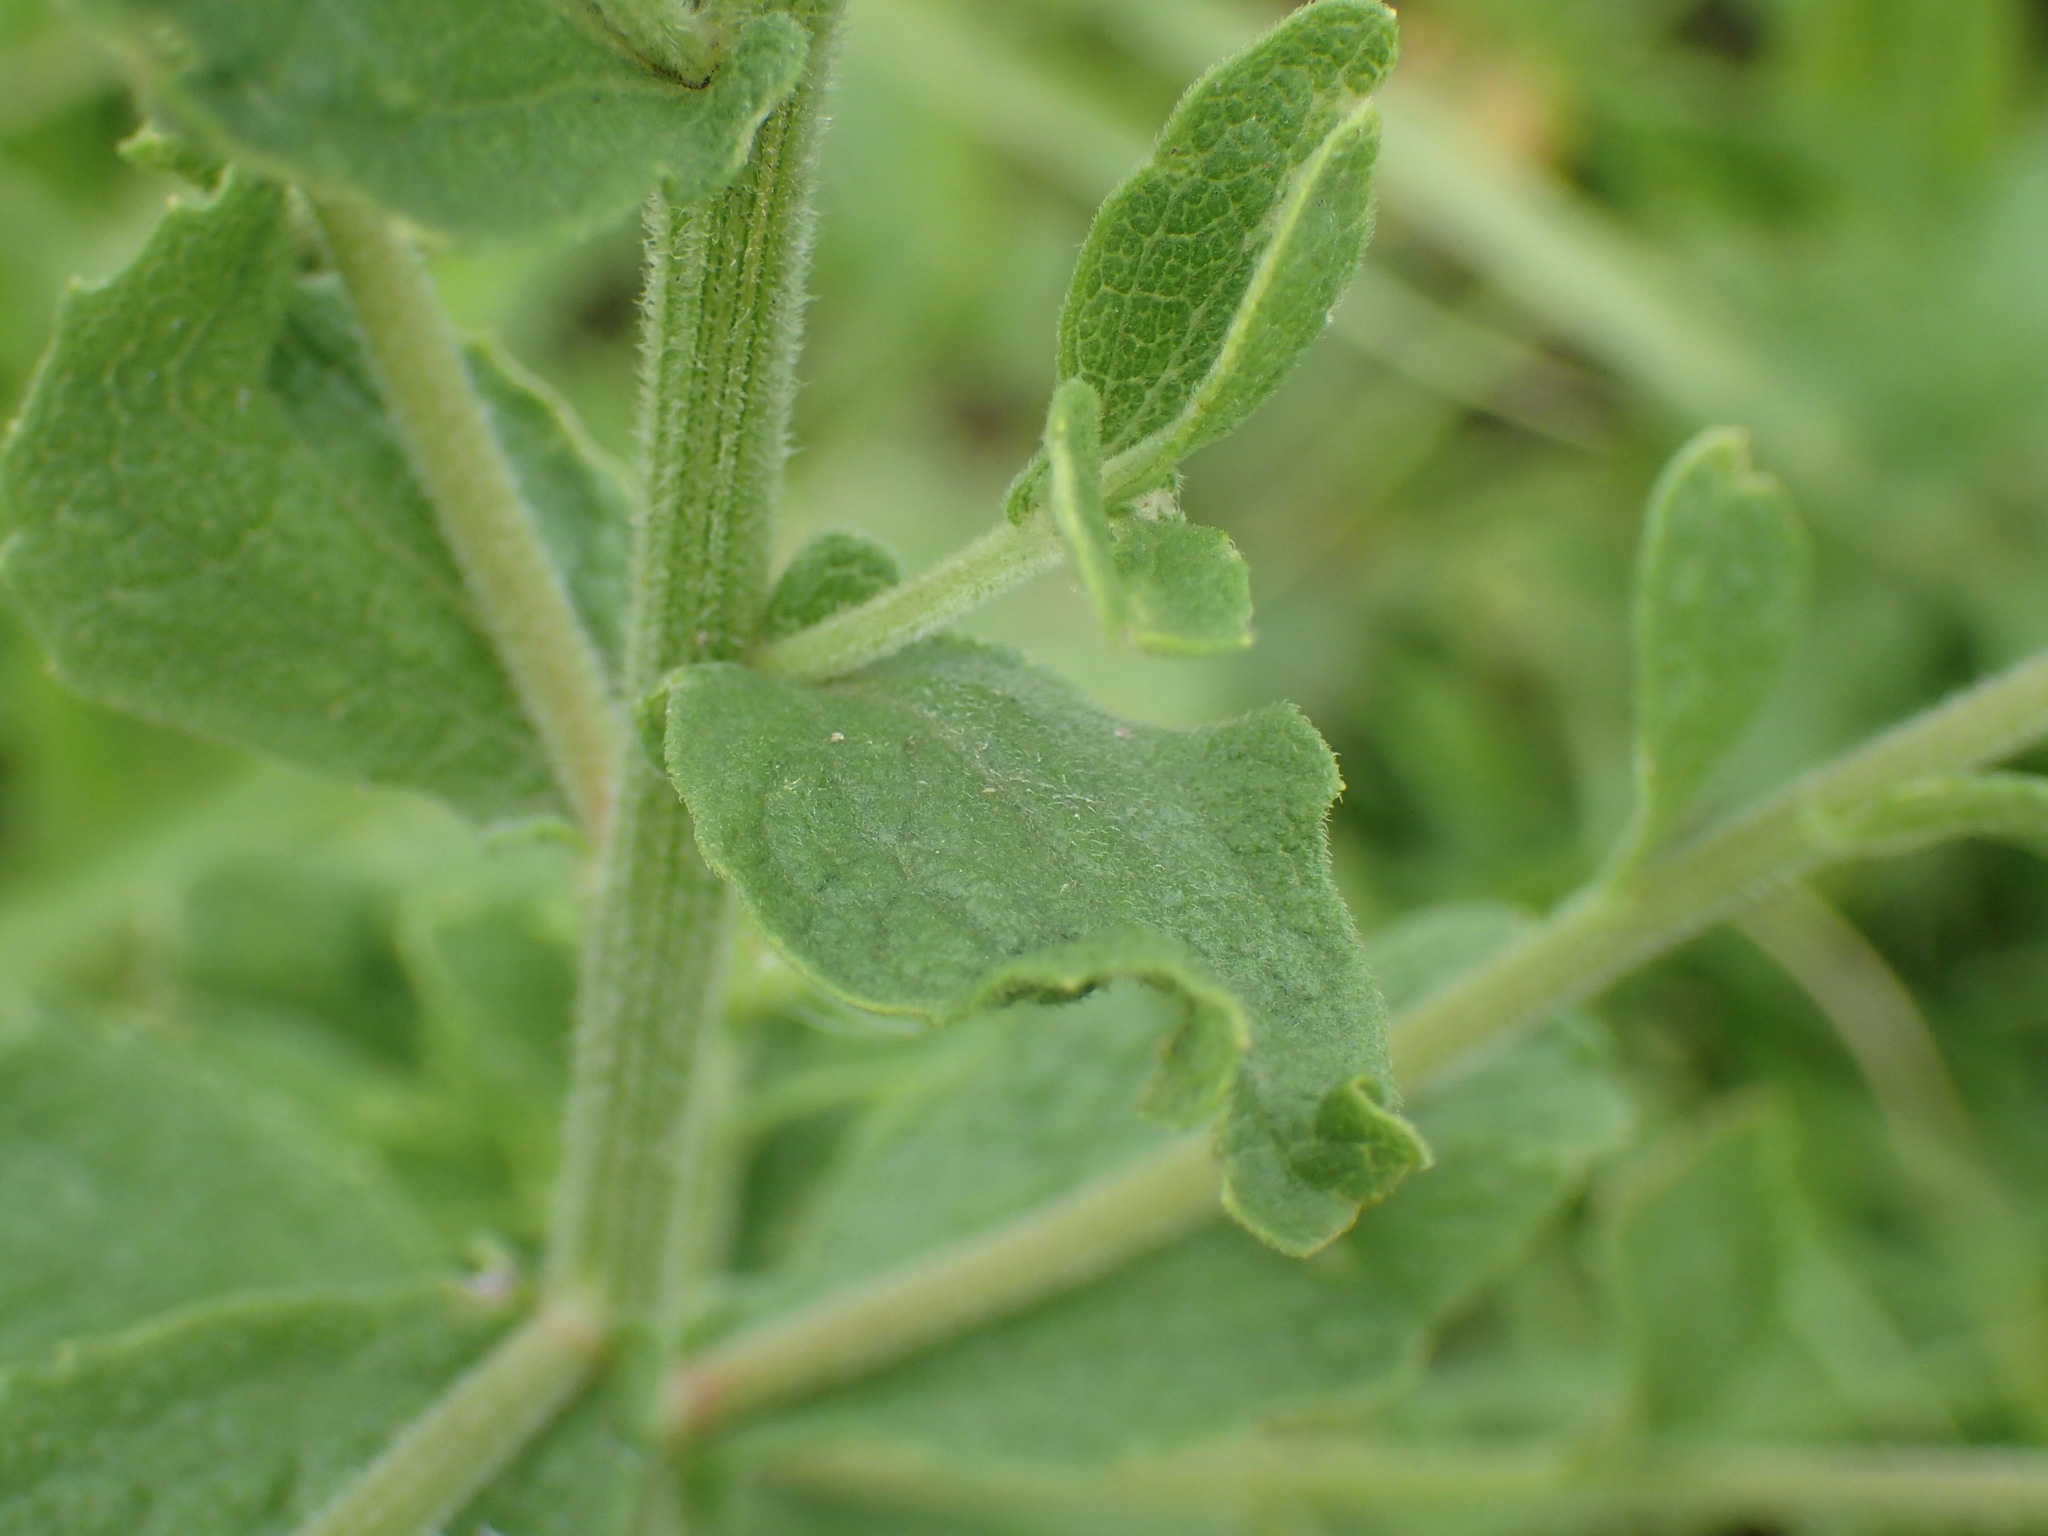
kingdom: Plantae
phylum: Tracheophyta
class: Magnoliopsida
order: Asterales
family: Asteraceae
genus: Nidorella
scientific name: Nidorella auriculata
